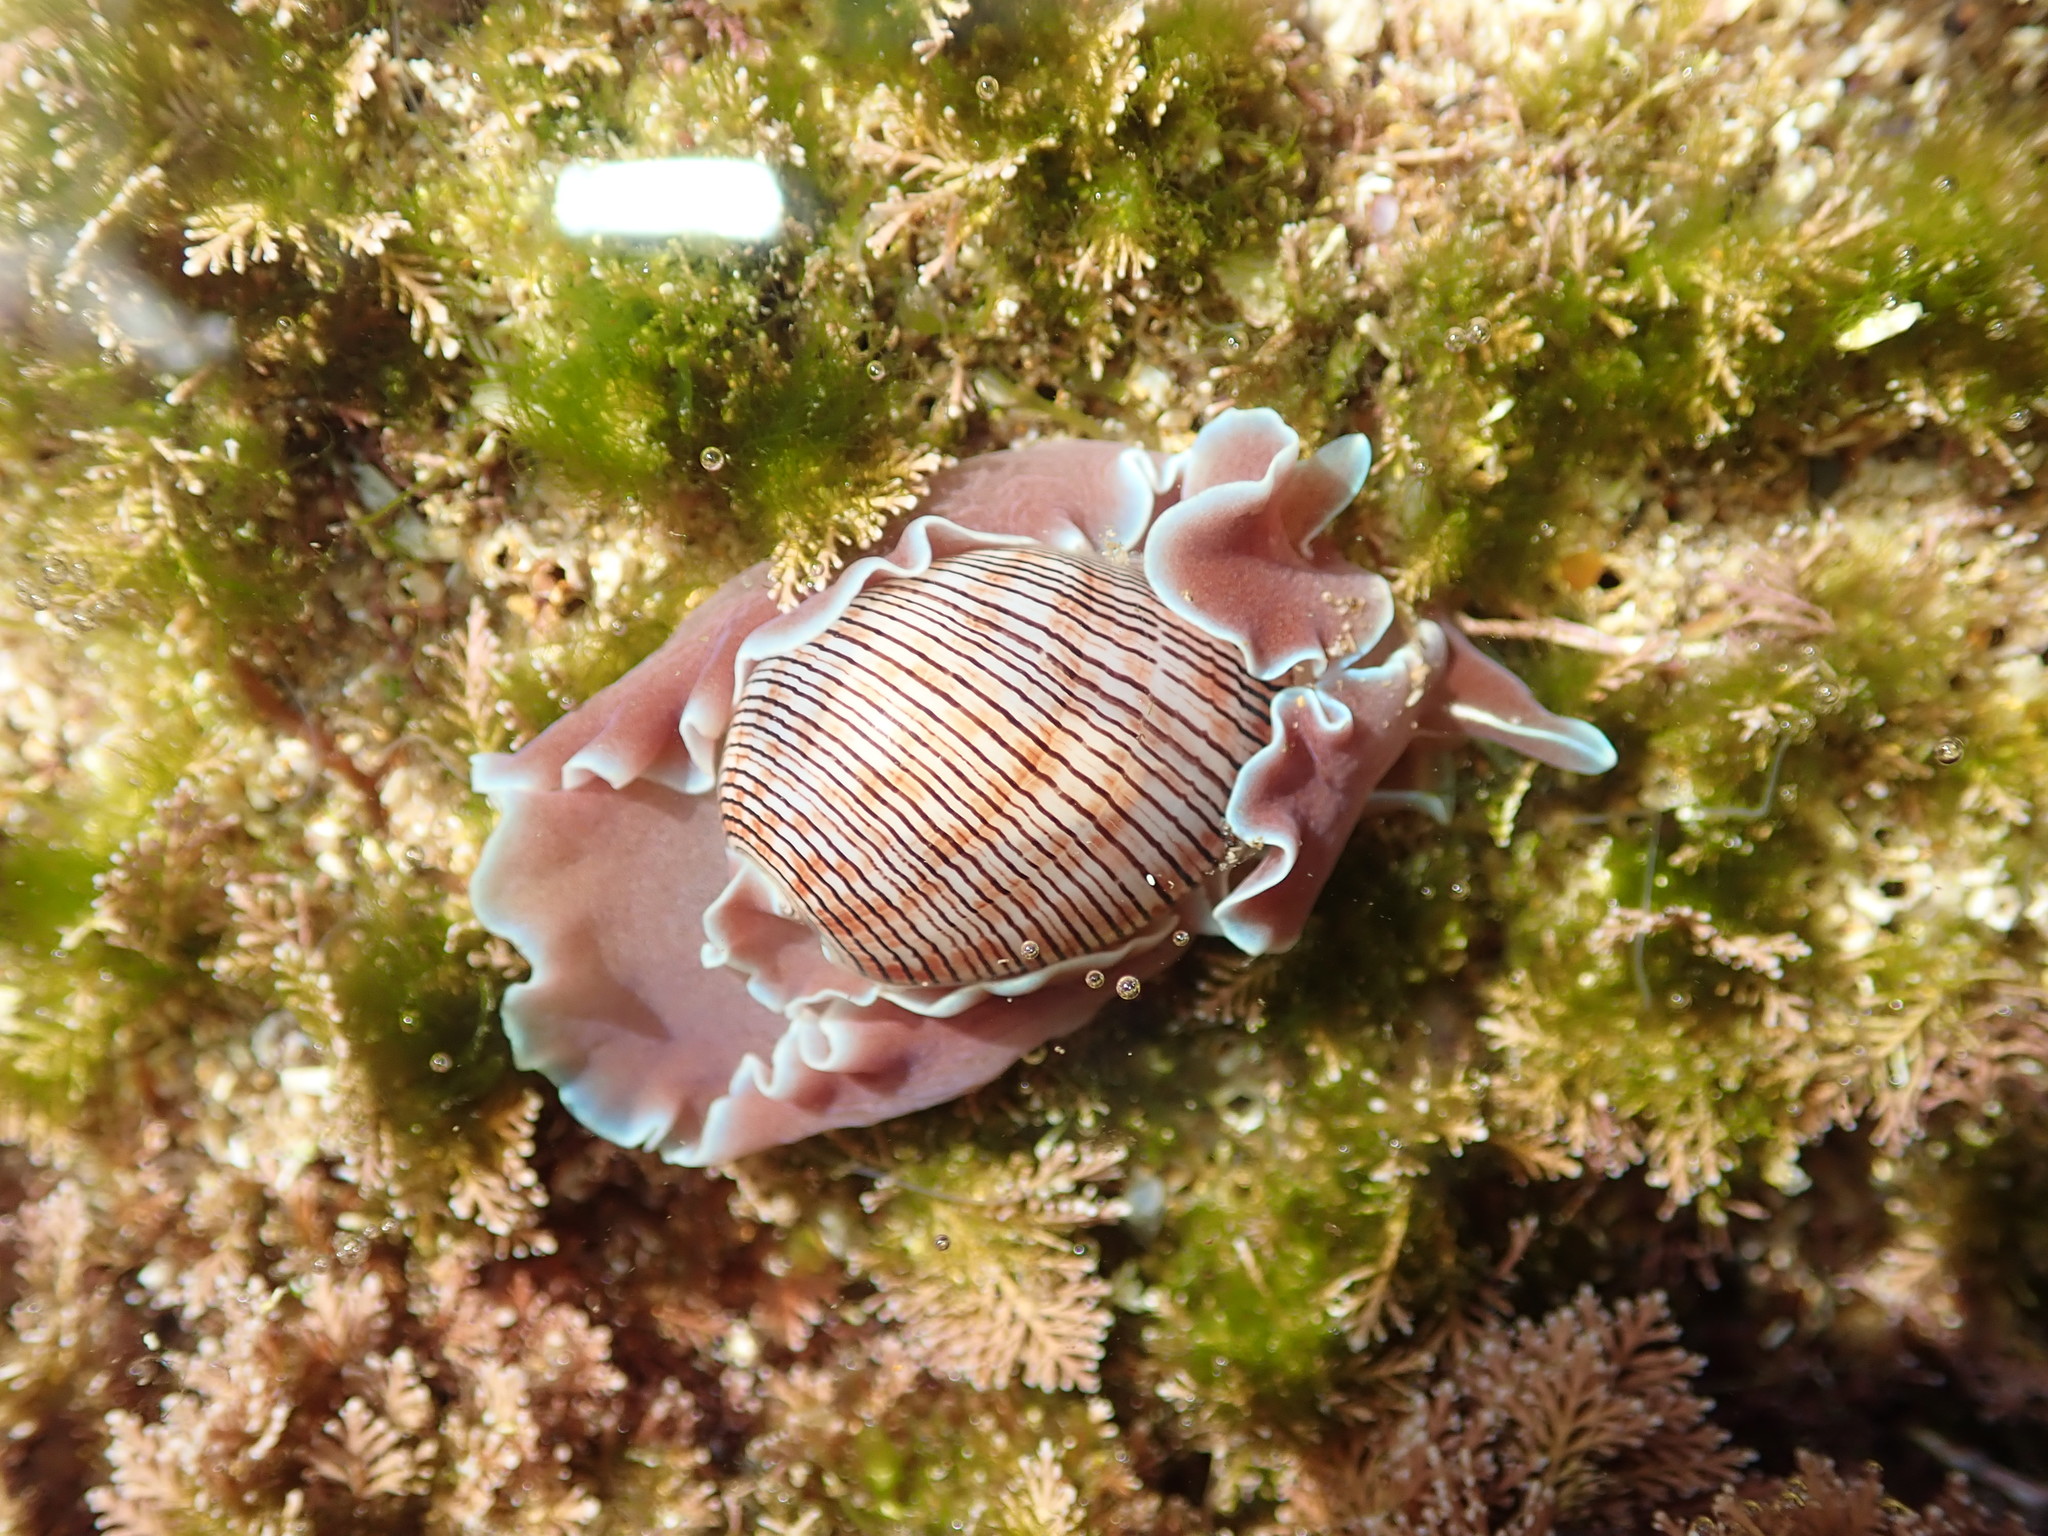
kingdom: Animalia
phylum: Mollusca
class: Gastropoda
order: Cephalaspidea
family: Aplustridae
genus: Hydatina
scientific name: Hydatina physis
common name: Brown-line paperbubble
